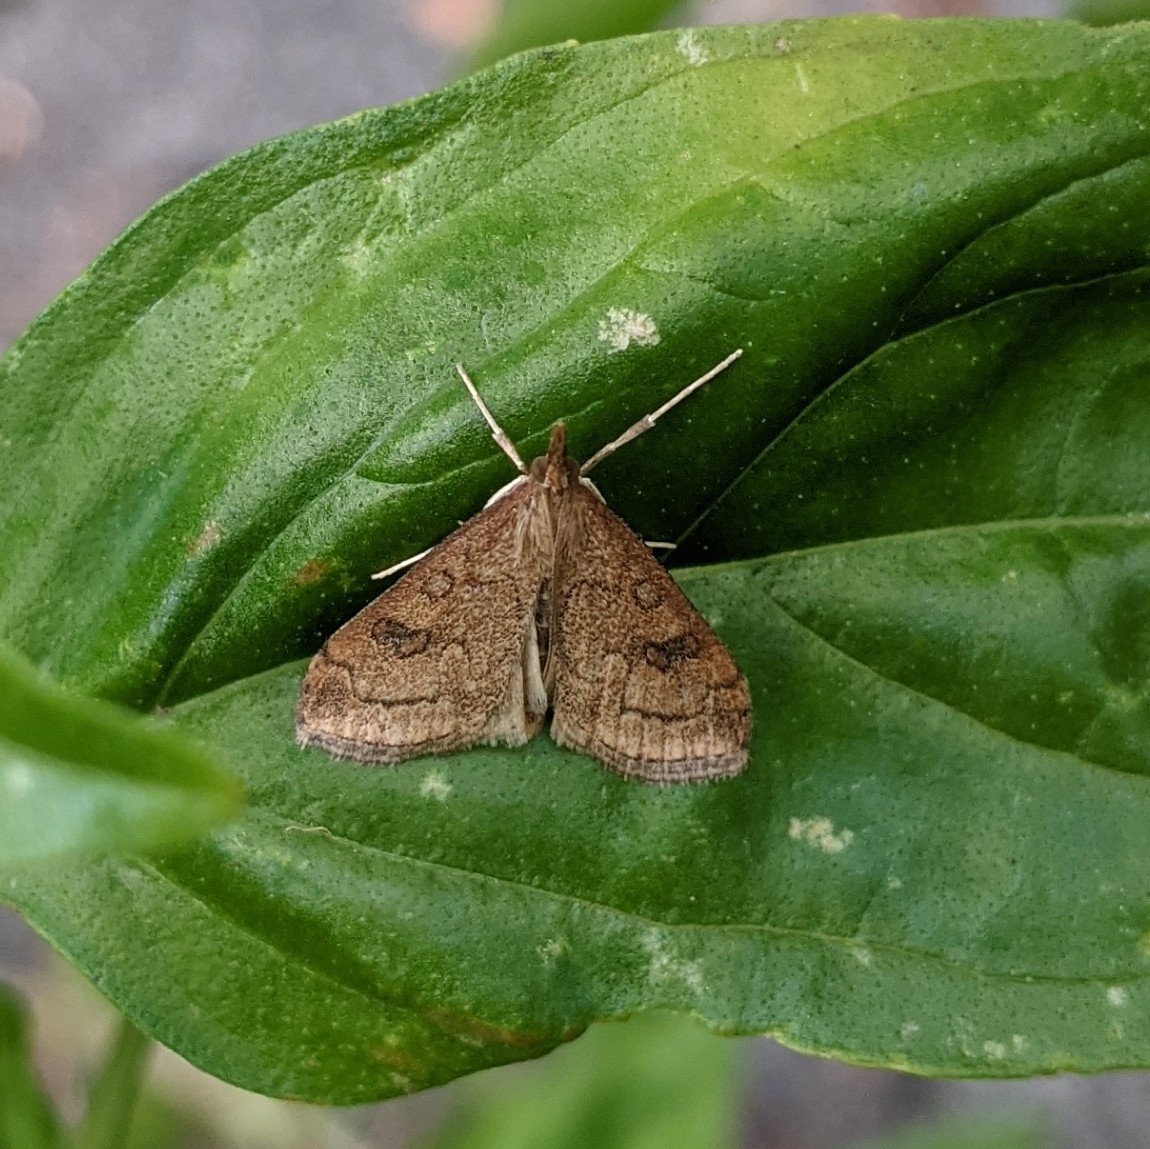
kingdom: Animalia
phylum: Arthropoda
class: Insecta
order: Lepidoptera
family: Crambidae
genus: Udea
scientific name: Udea profundalis
